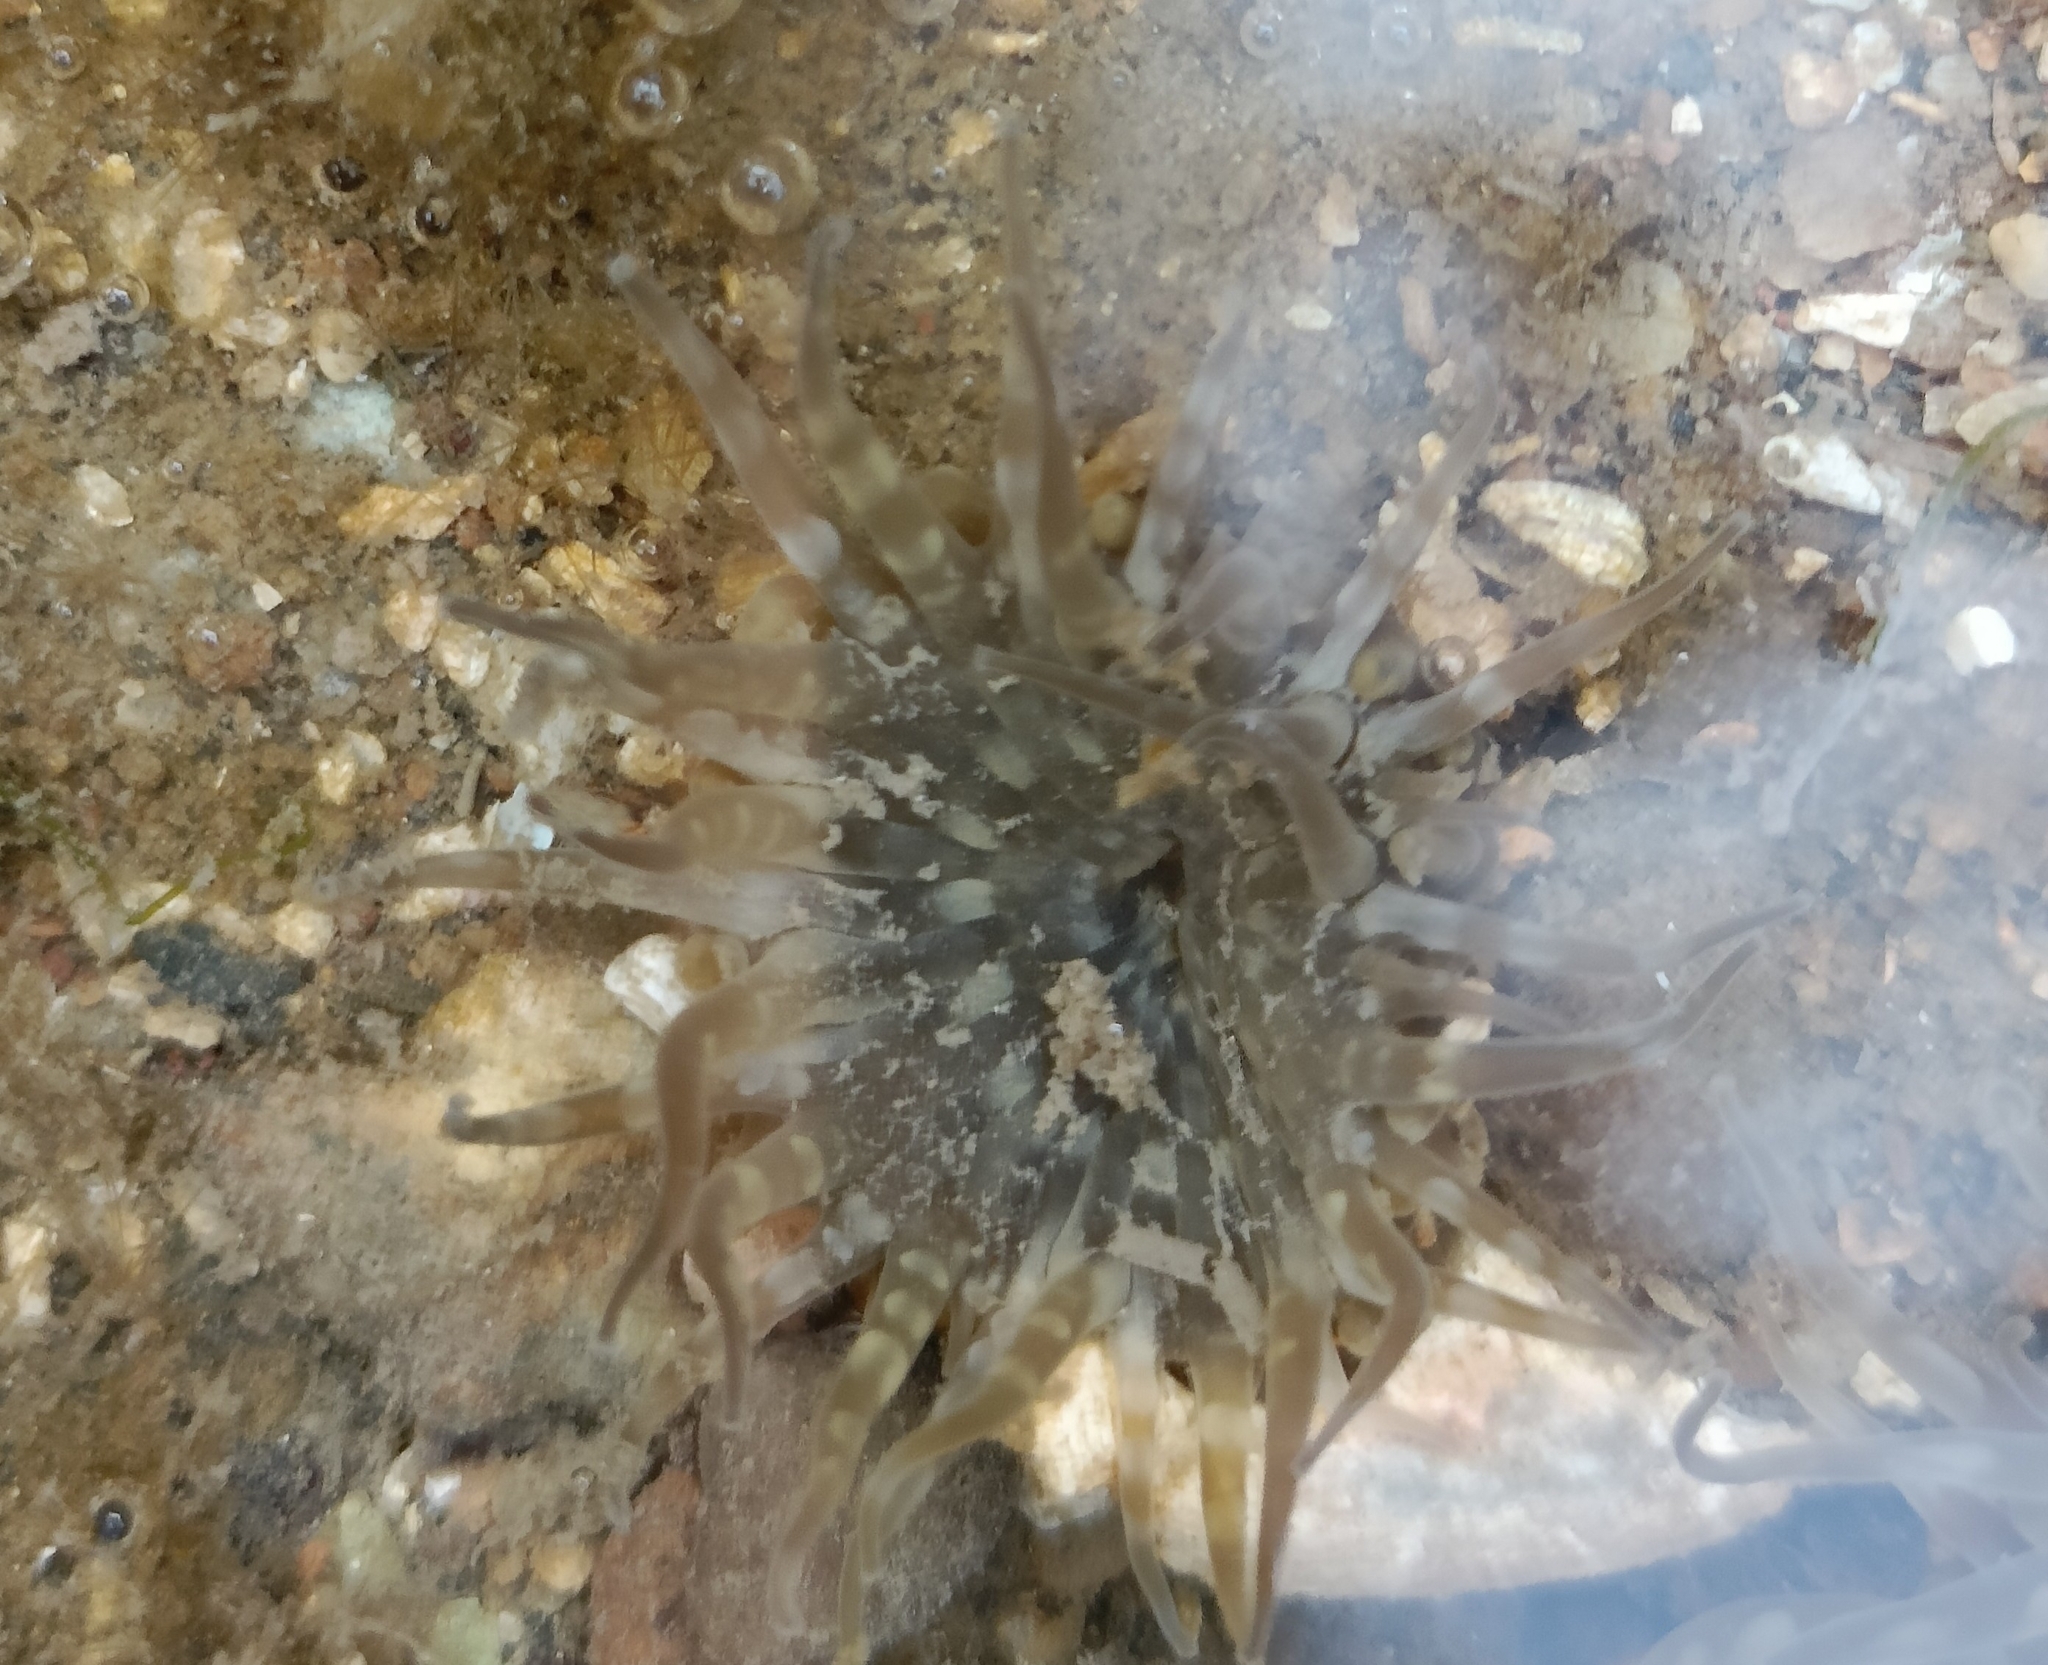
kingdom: Animalia
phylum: Cnidaria
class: Anthozoa
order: Actiniaria
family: Actiniidae
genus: Anthopleura
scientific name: Anthopleura dixoniana
